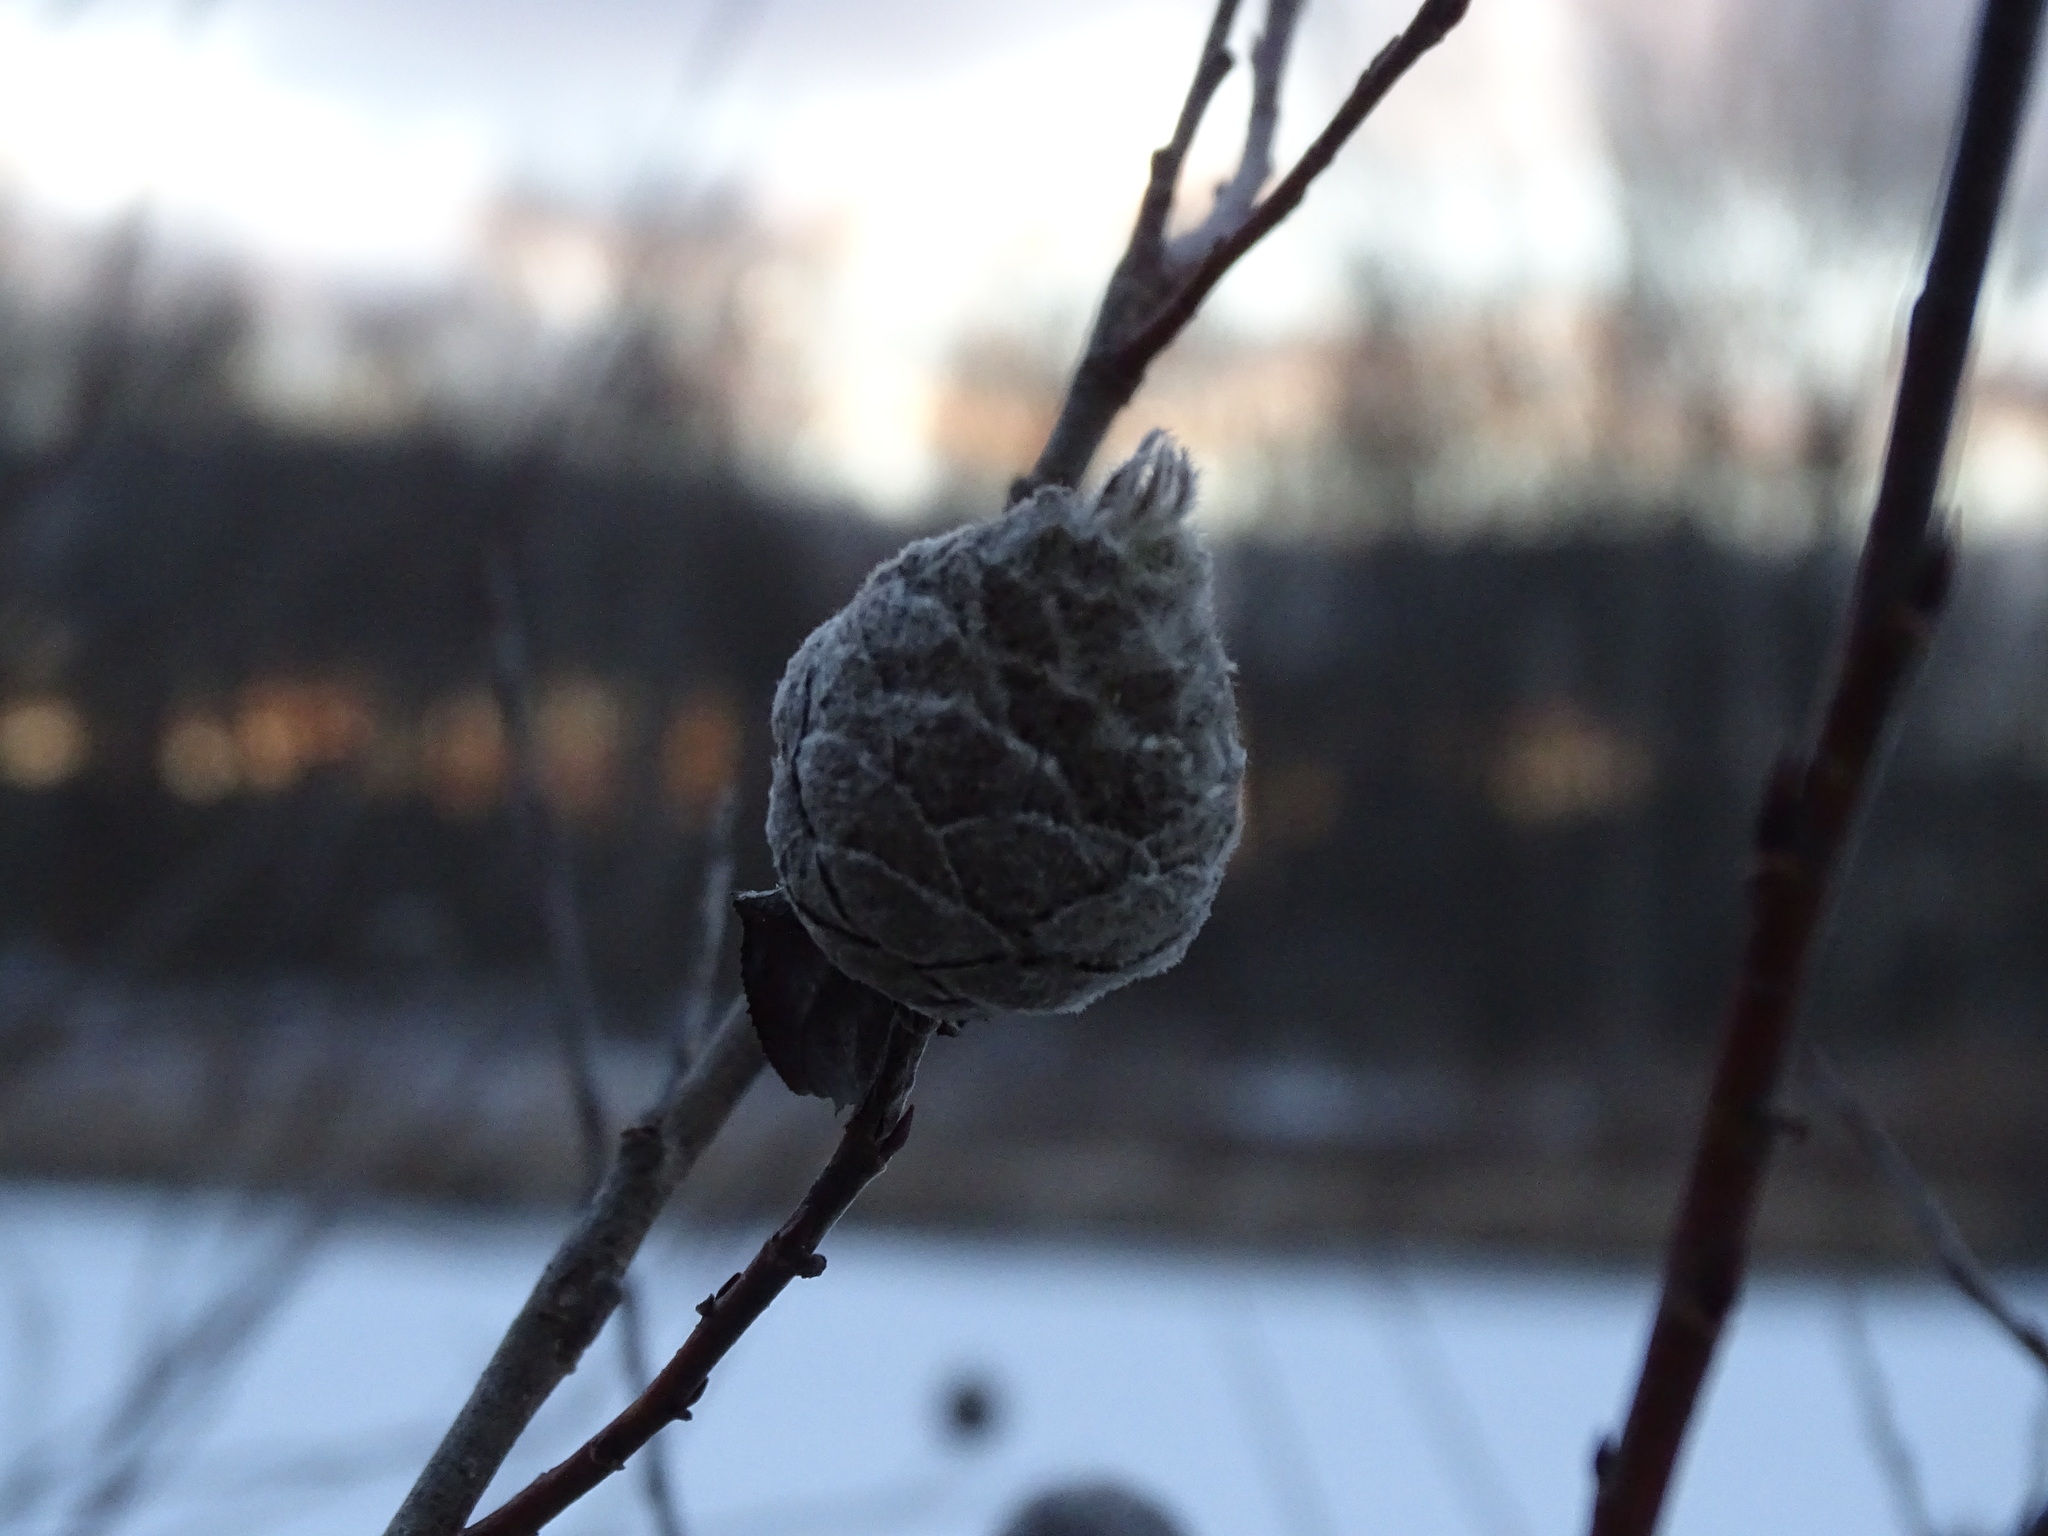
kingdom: Animalia
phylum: Arthropoda
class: Insecta
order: Diptera
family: Cecidomyiidae
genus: Rabdophaga
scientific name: Rabdophaga strobiloides
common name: Willow pinecone gall midge
